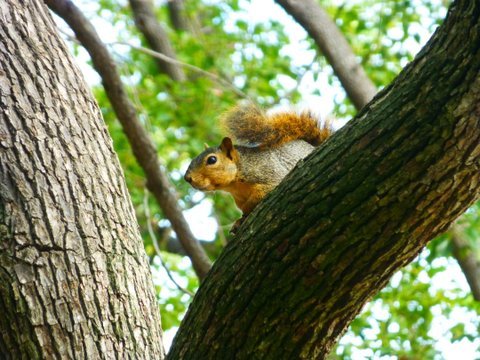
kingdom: Animalia
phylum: Chordata
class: Mammalia
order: Rodentia
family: Sciuridae
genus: Sciurus
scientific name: Sciurus niger
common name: Fox squirrel
